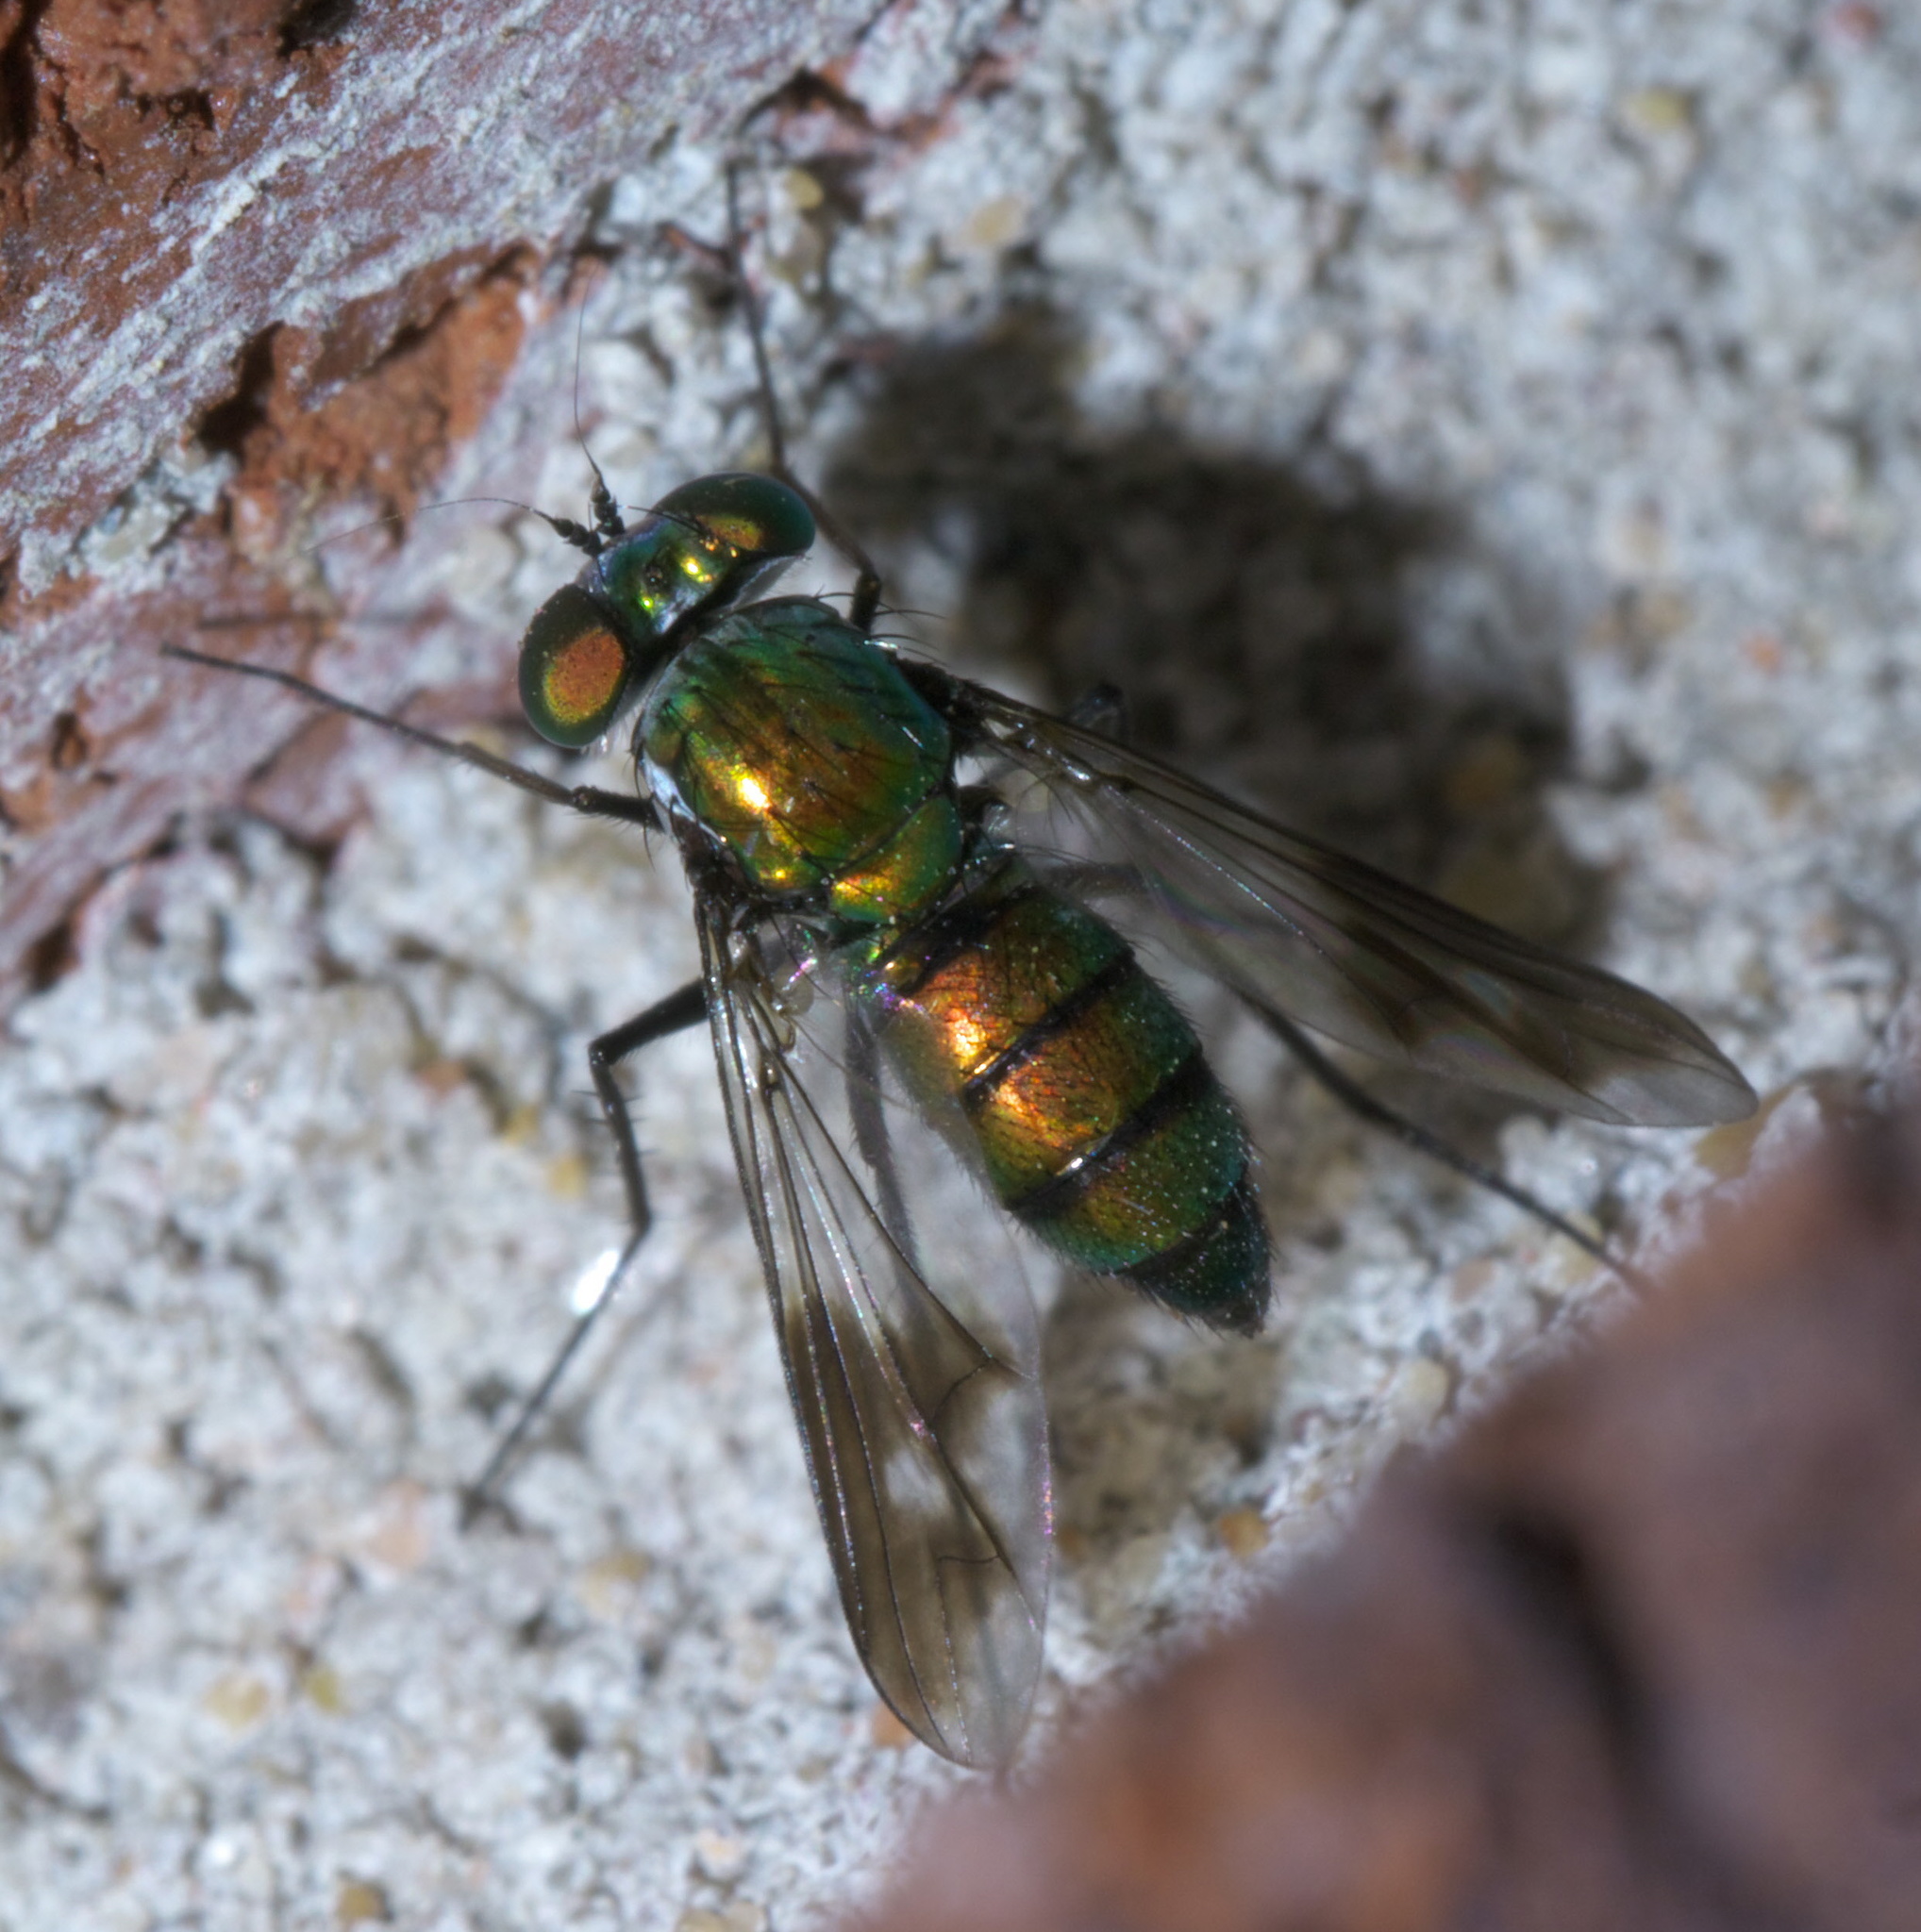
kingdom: Animalia
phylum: Arthropoda
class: Insecta
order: Diptera
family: Dolichopodidae
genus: Condylostylus
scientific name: Condylostylus patibulatus
